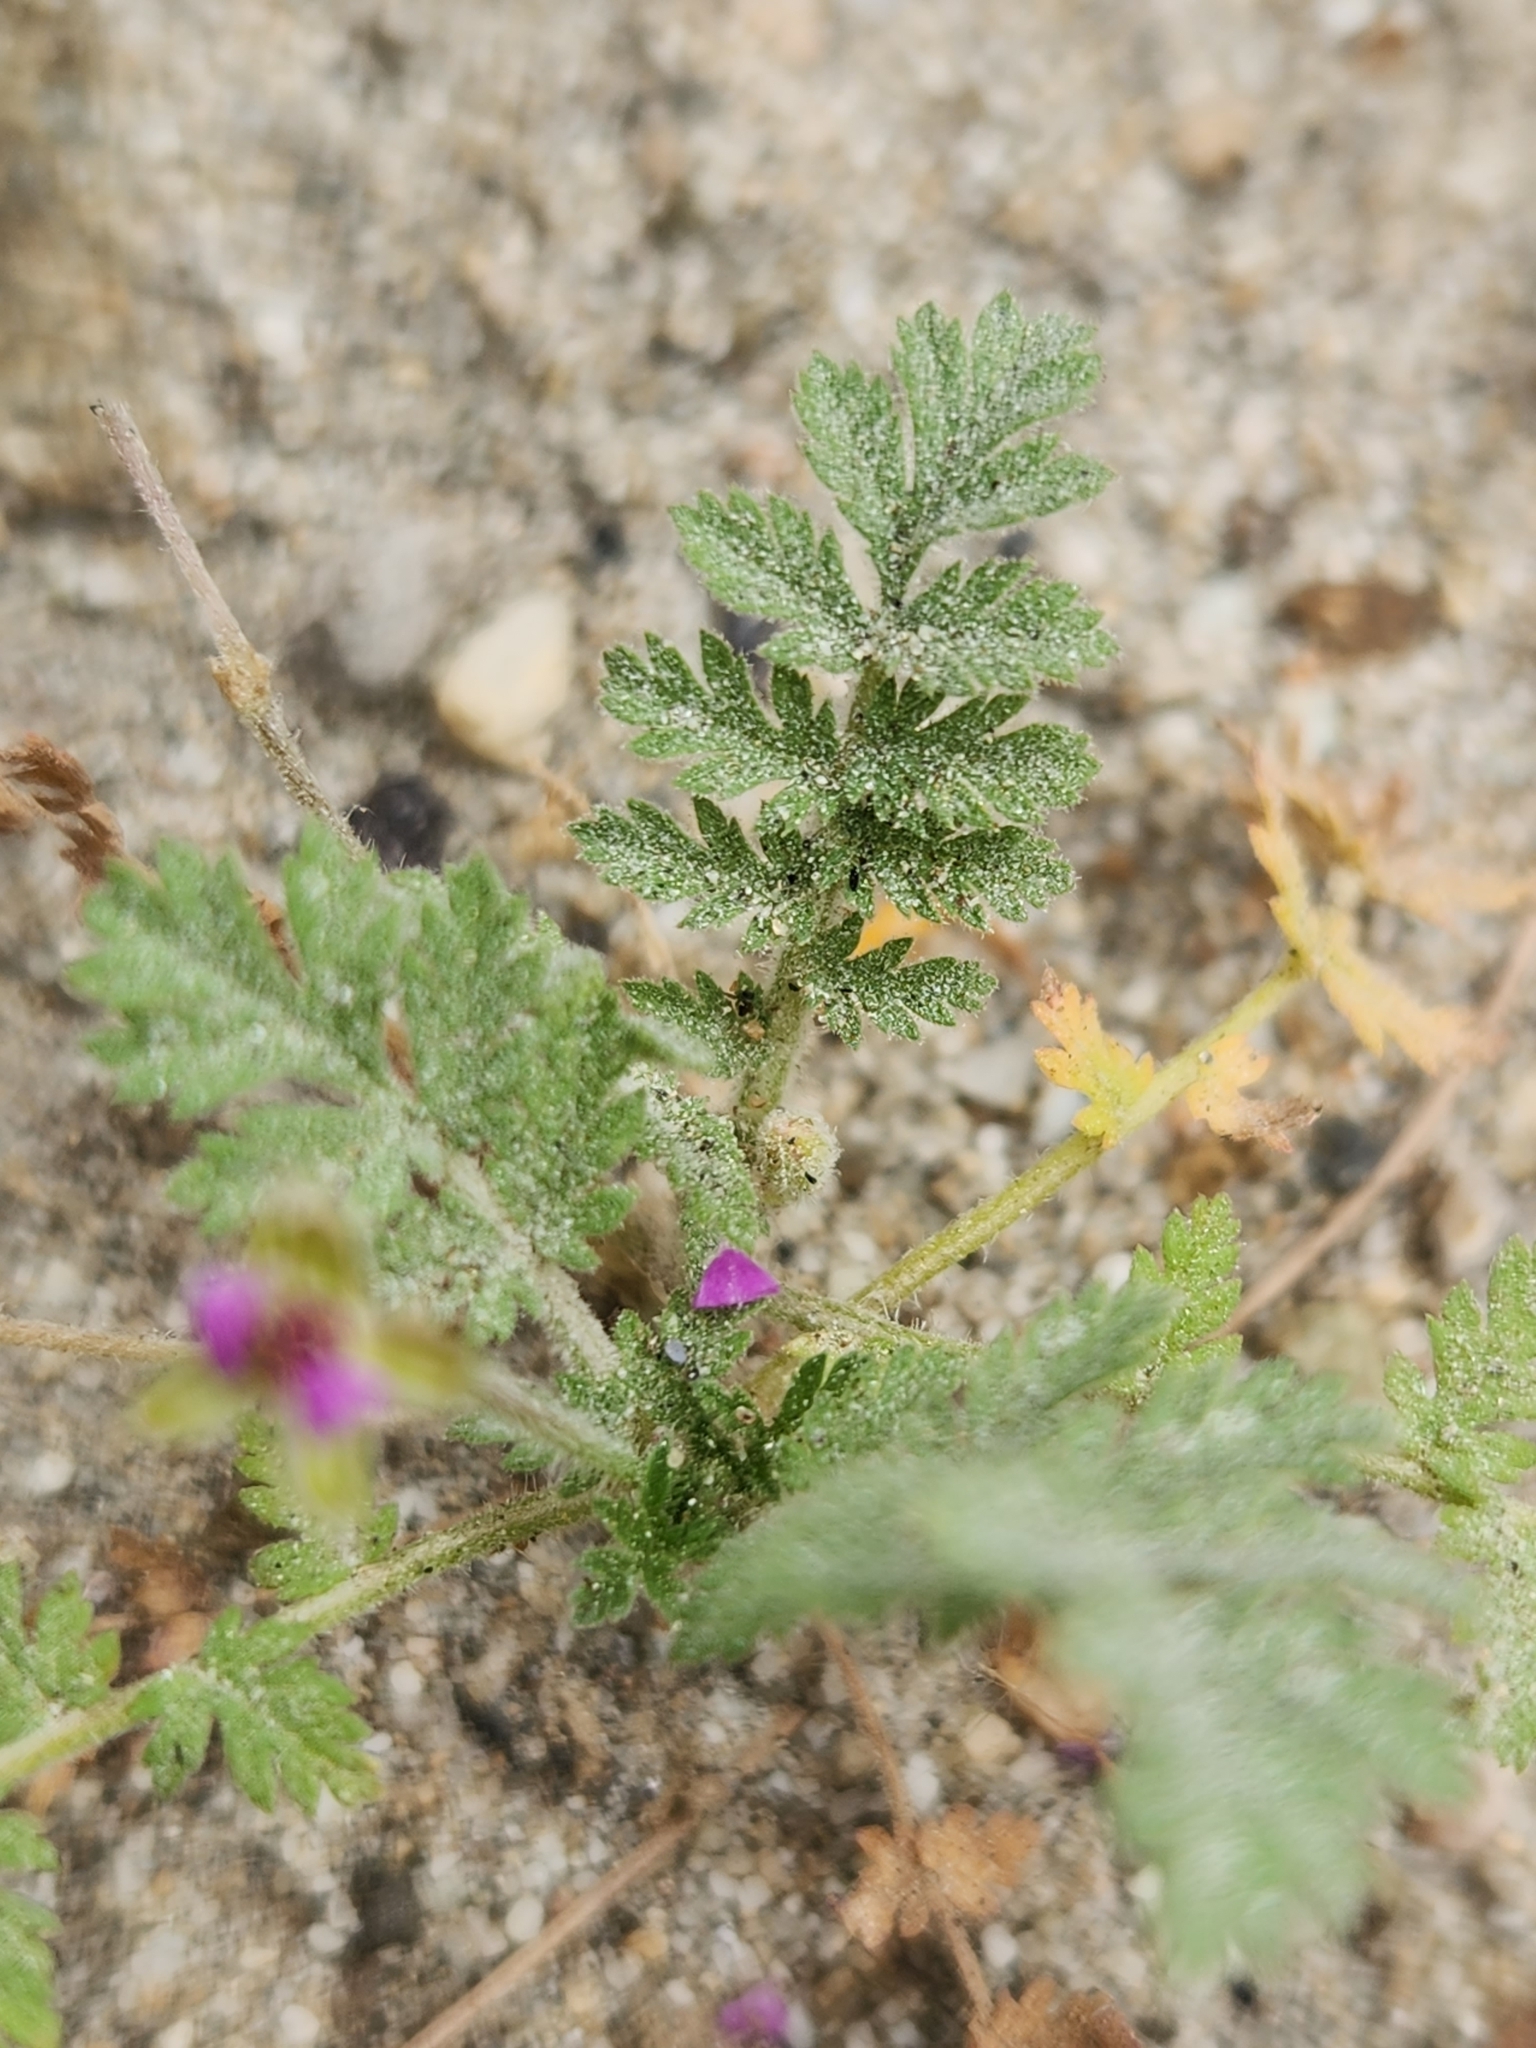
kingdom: Plantae
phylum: Tracheophyta
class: Magnoliopsida
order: Geraniales
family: Geraniaceae
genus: Erodium
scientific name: Erodium cicutarium
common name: Common stork's-bill
